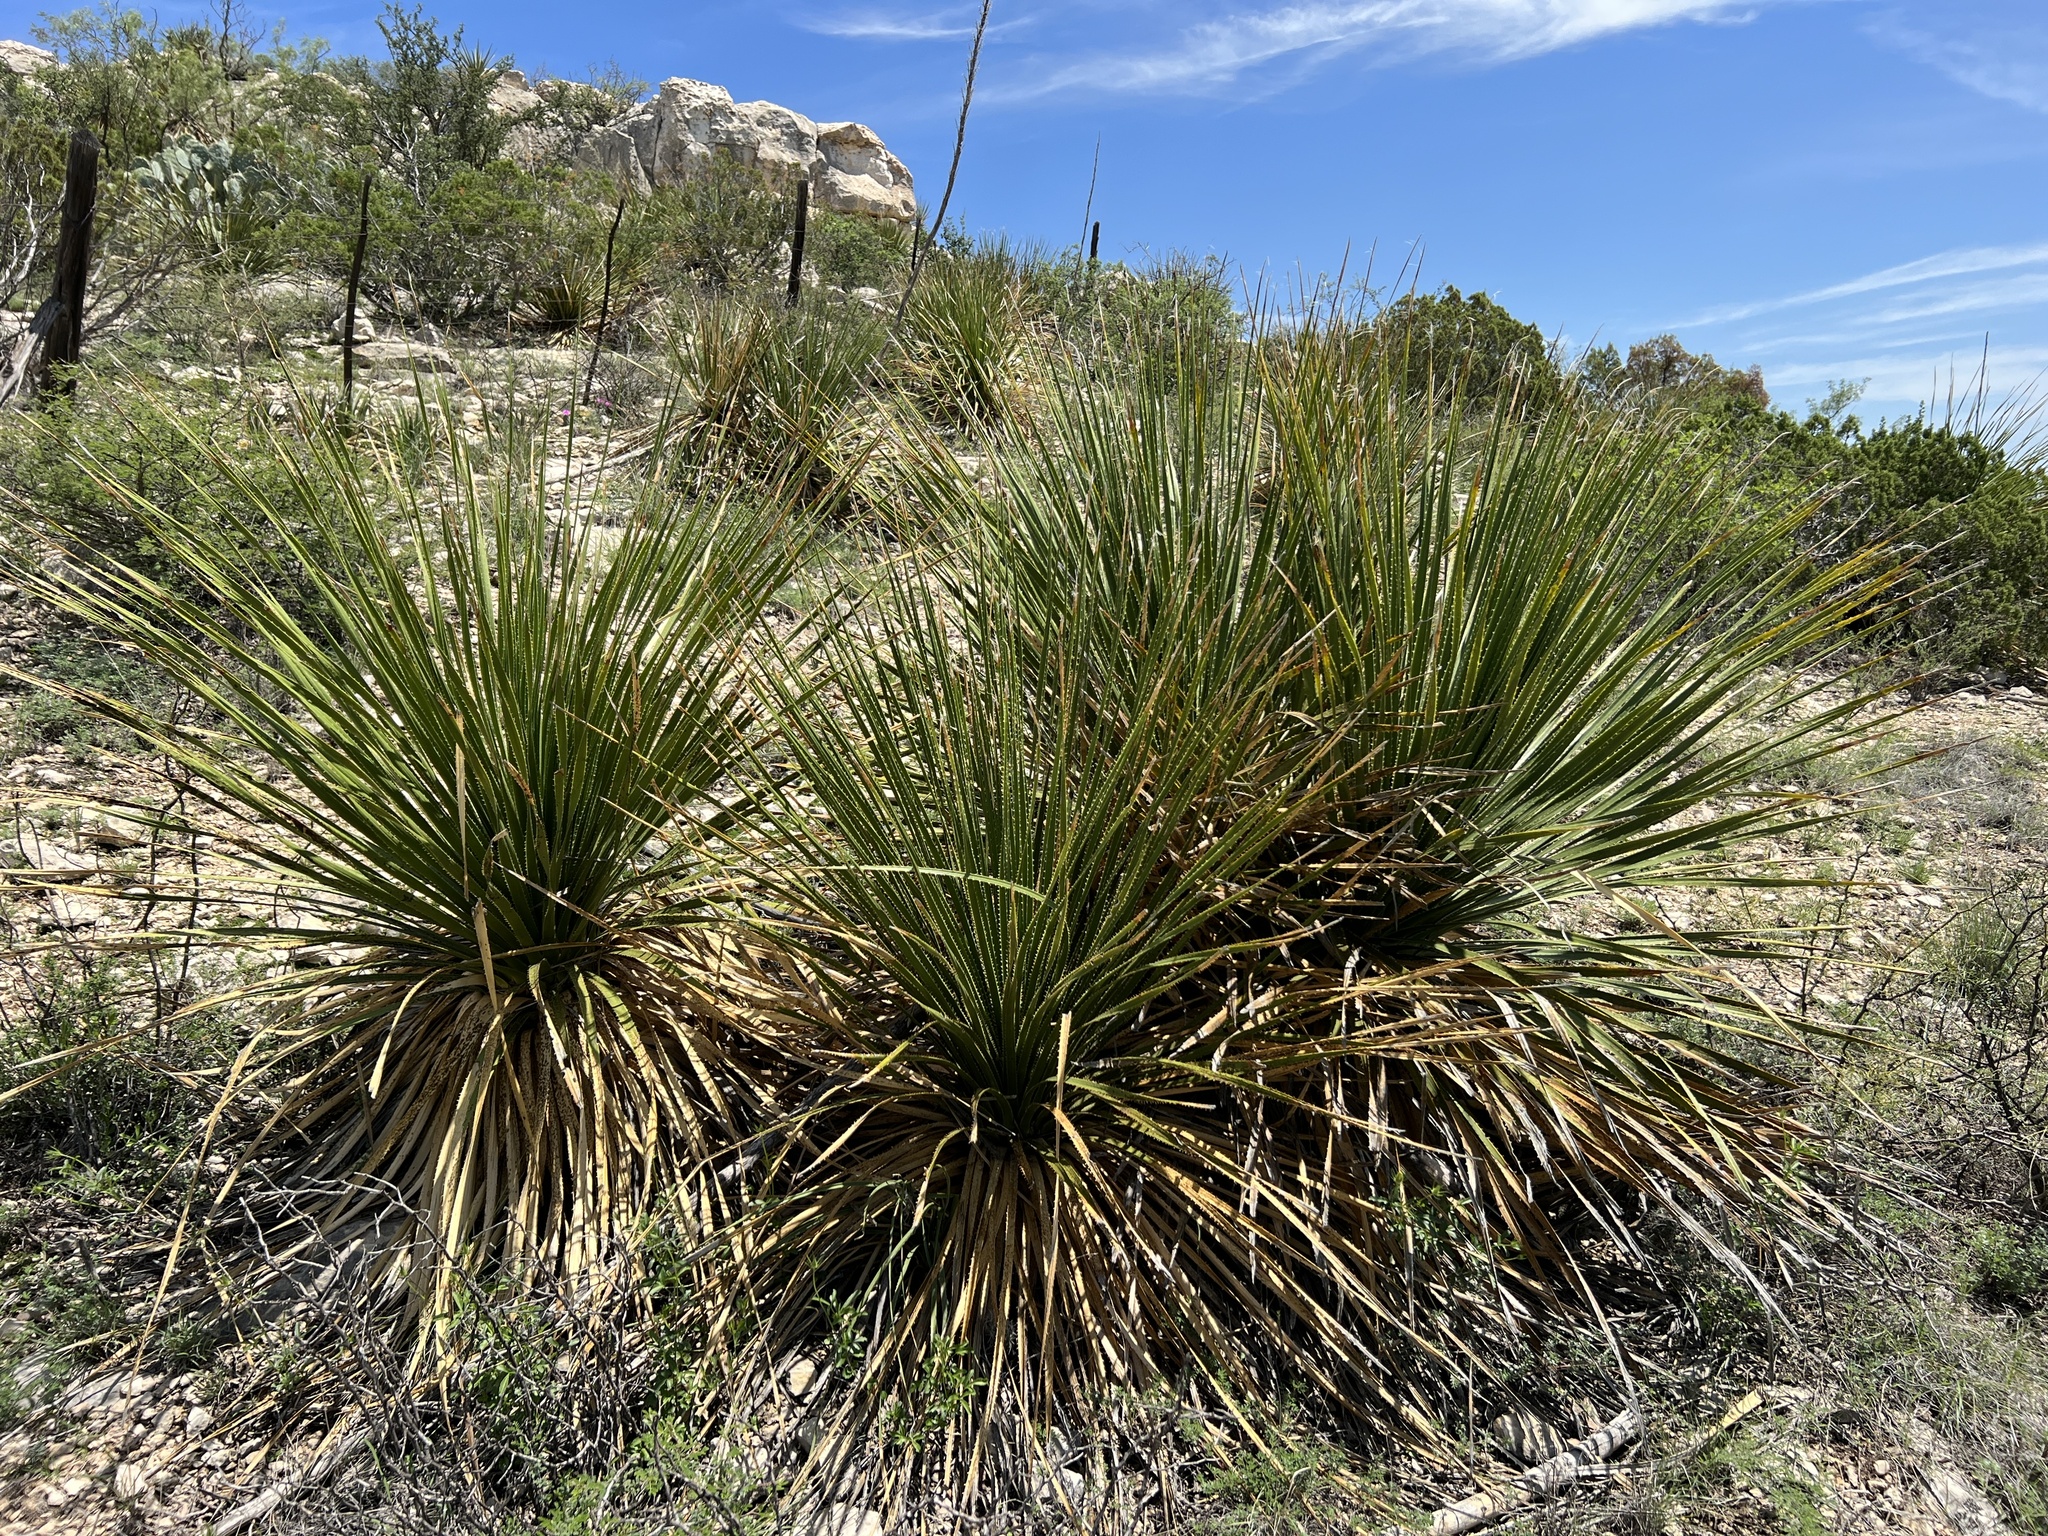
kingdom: Plantae
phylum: Tracheophyta
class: Liliopsida
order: Asparagales
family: Asparagaceae
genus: Dasylirion
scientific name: Dasylirion leiophyllum
